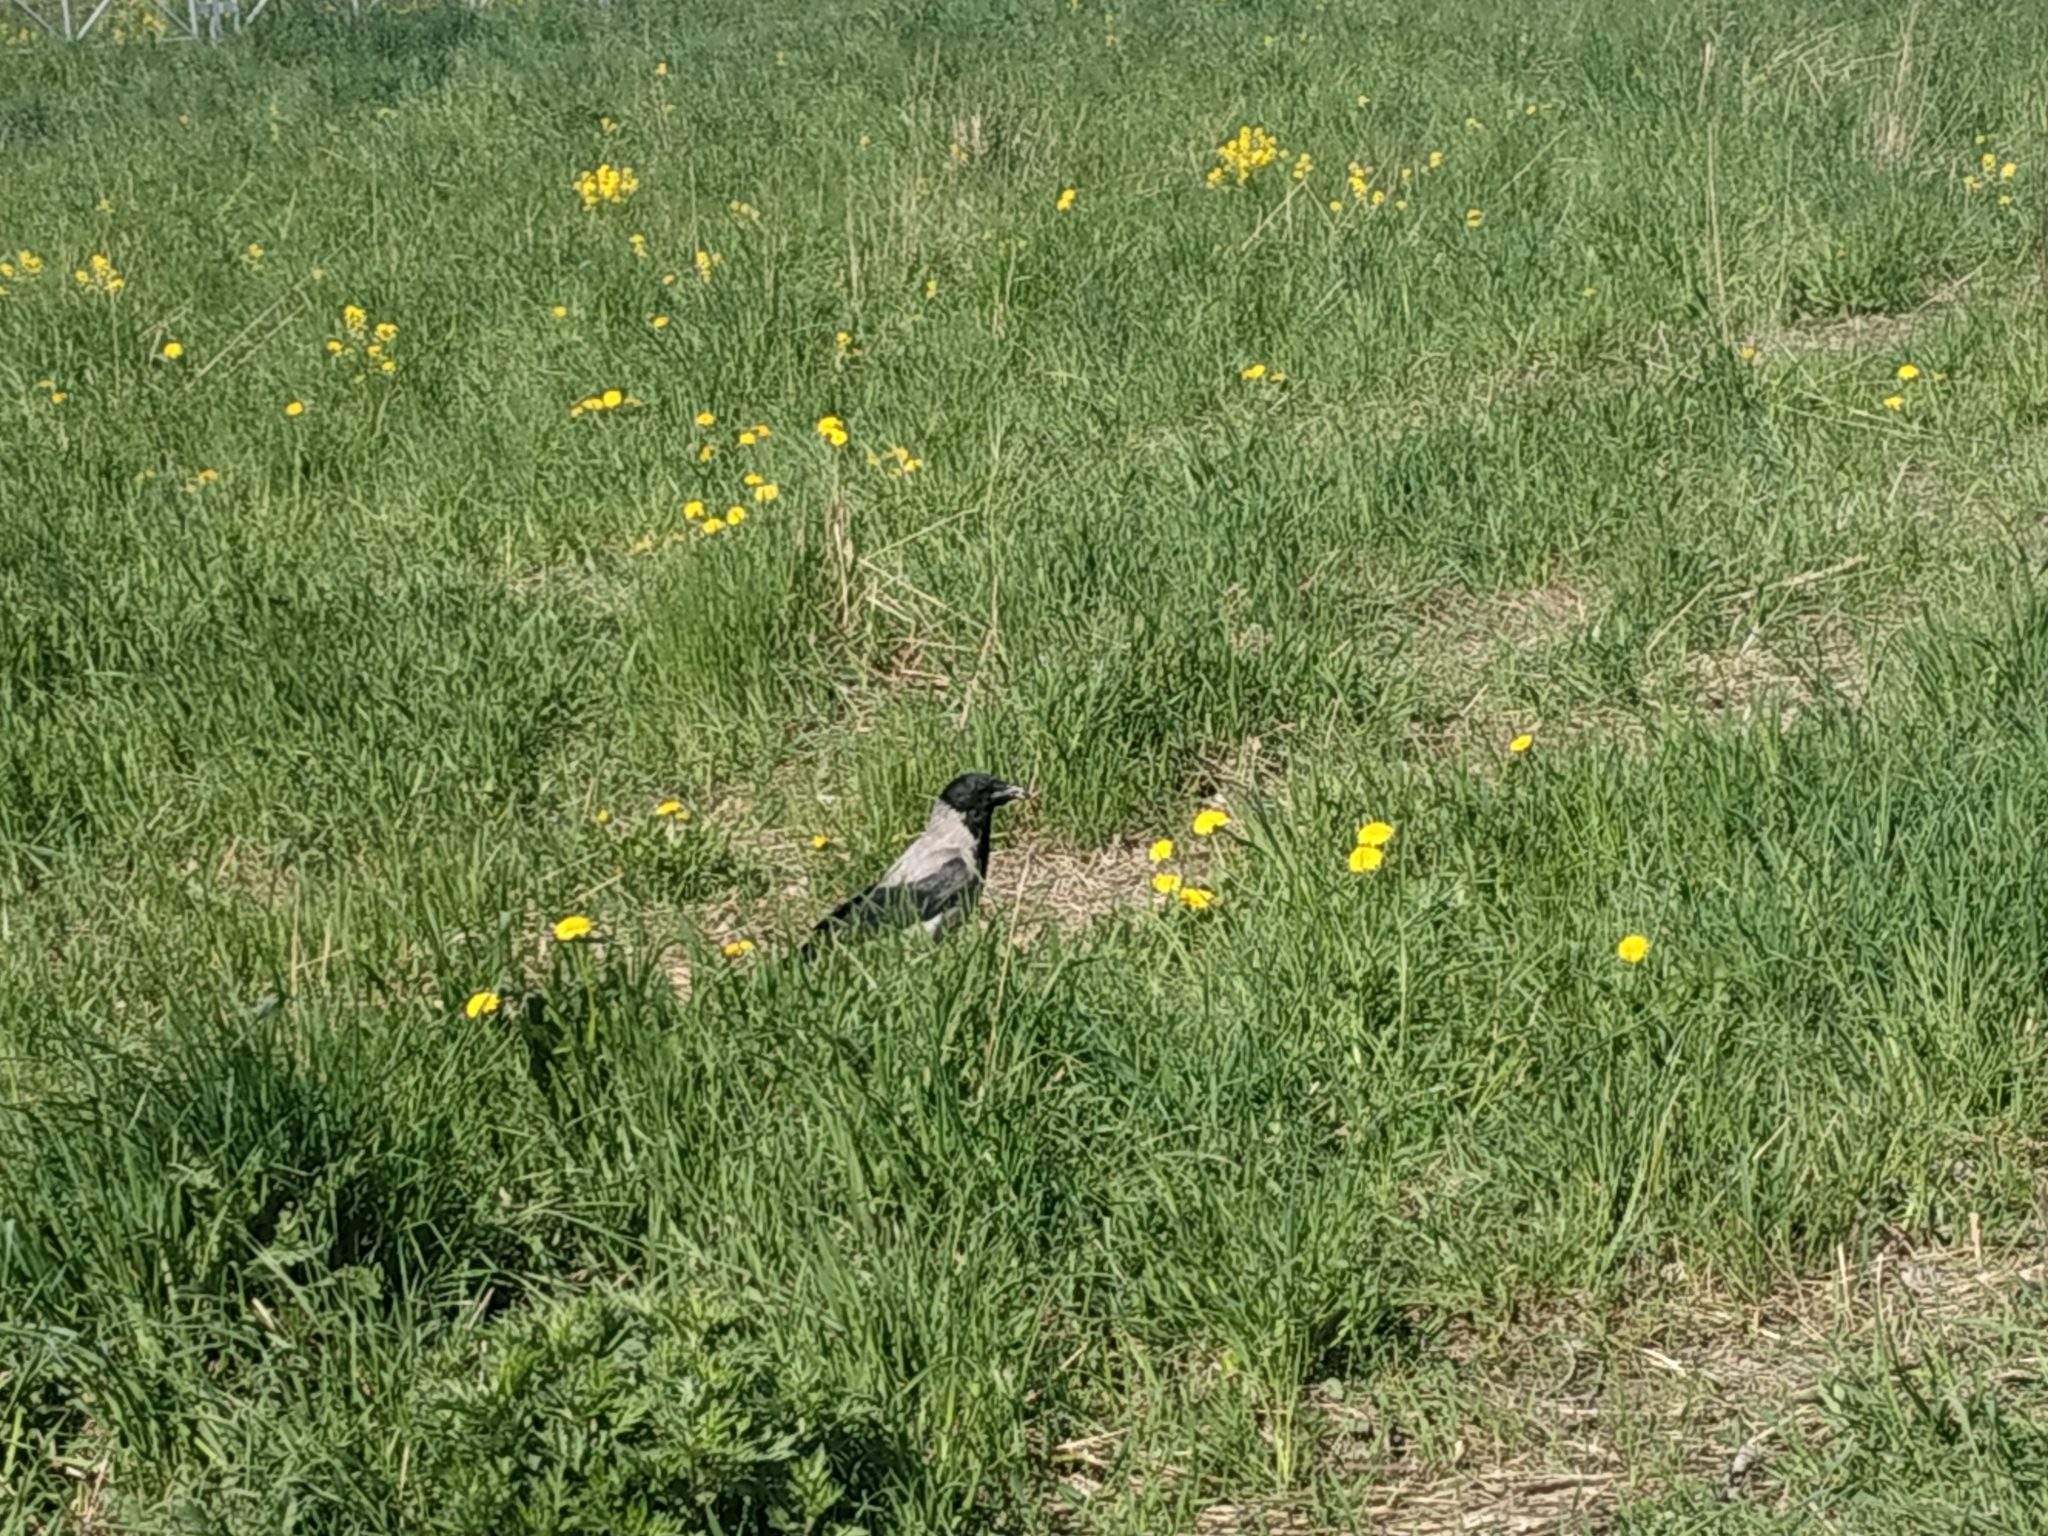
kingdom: Animalia
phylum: Chordata
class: Aves
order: Passeriformes
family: Corvidae
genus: Corvus
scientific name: Corvus cornix
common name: Hooded crow
